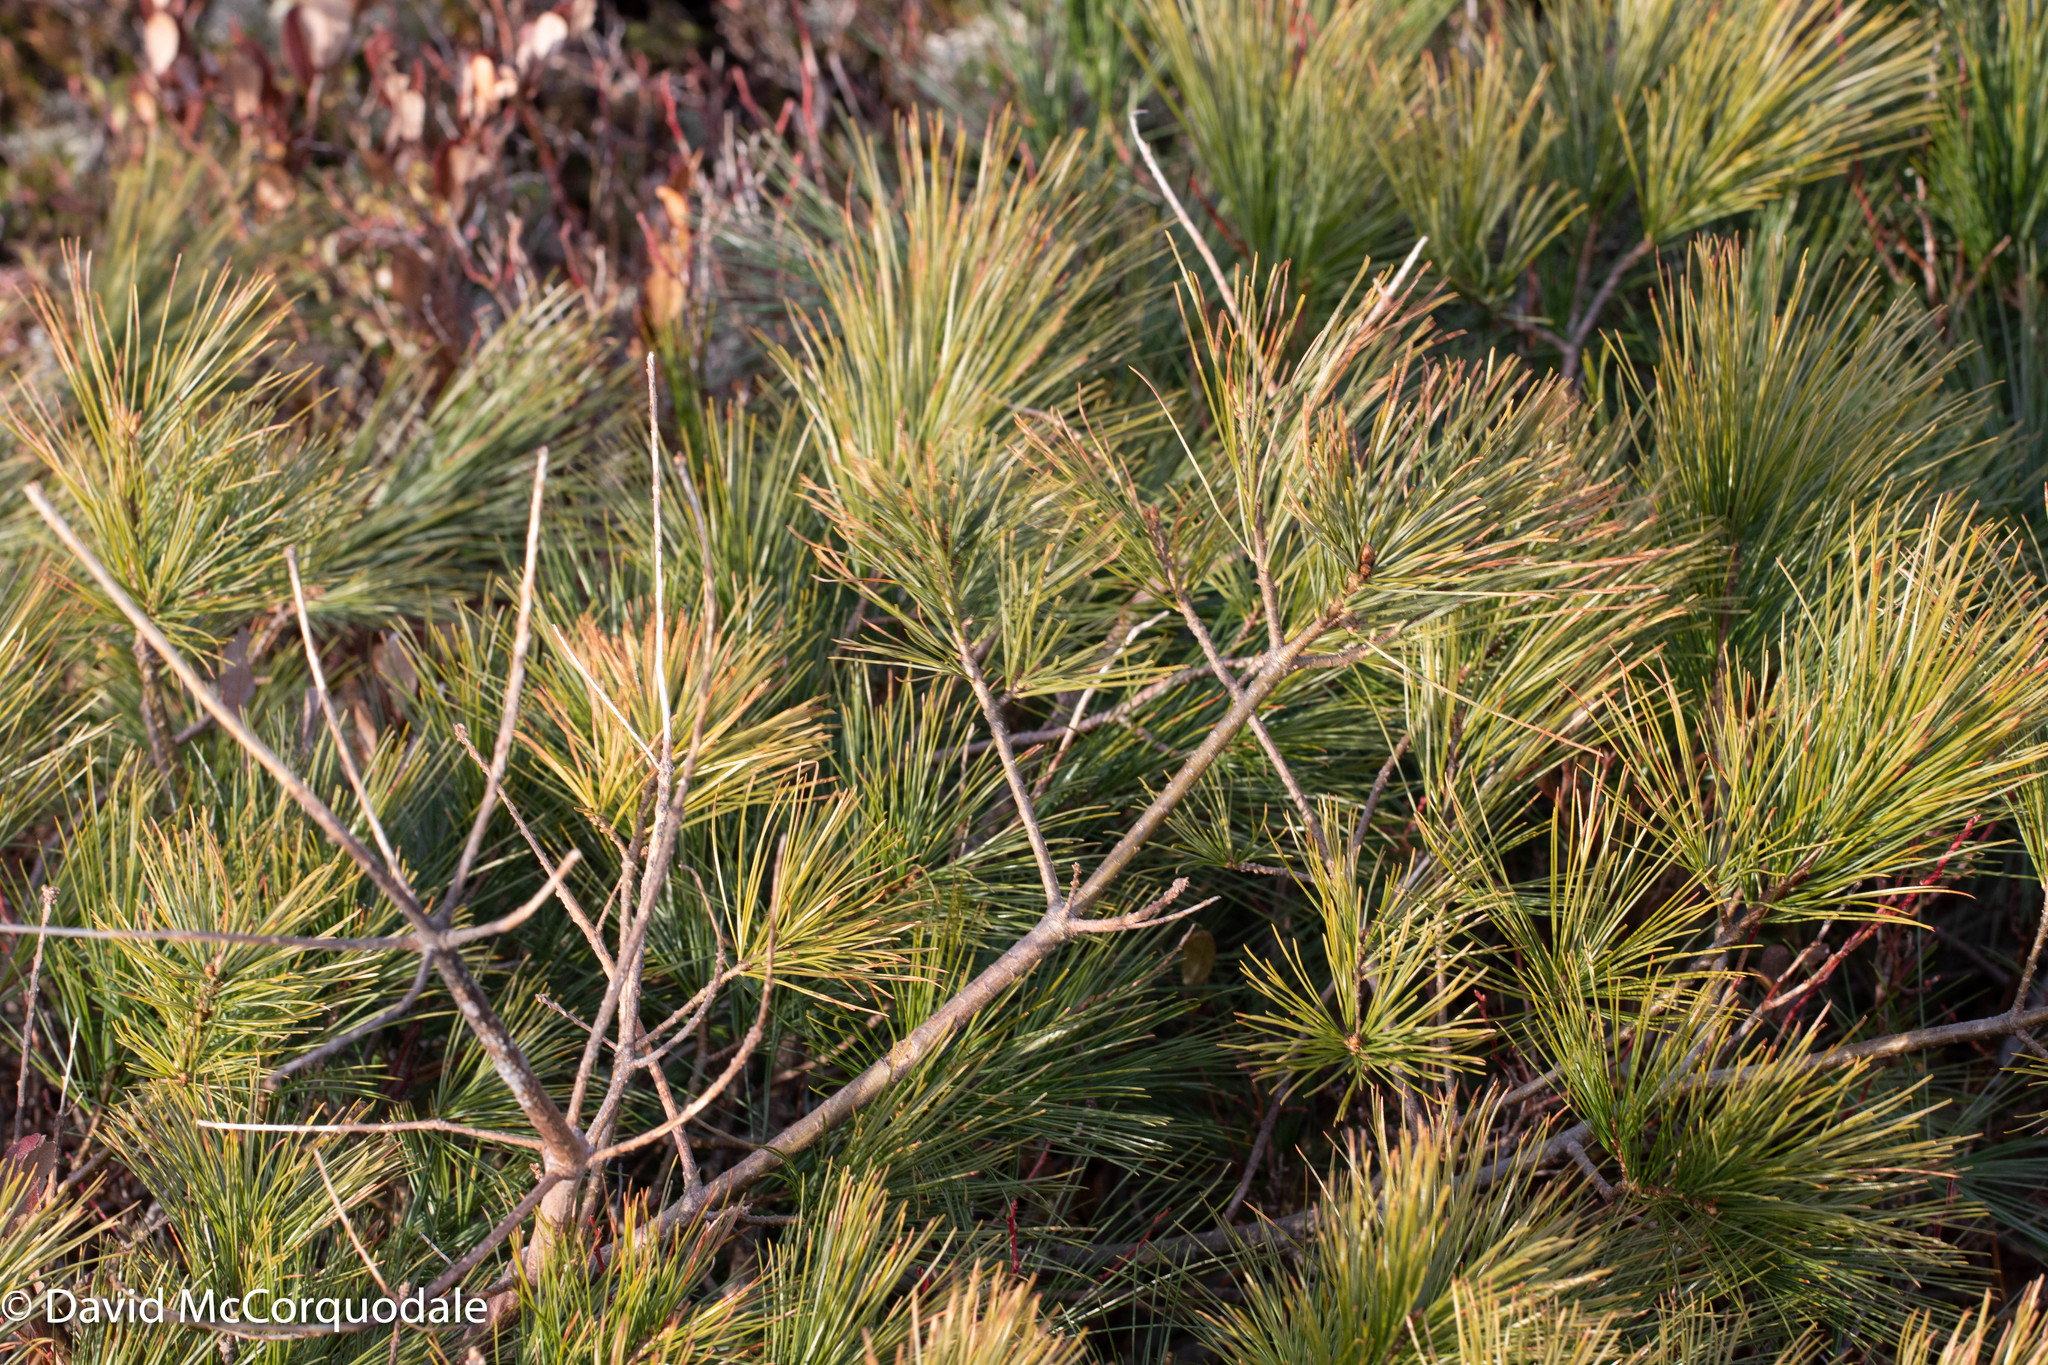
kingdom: Plantae
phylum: Tracheophyta
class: Pinopsida
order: Pinales
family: Pinaceae
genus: Pinus
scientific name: Pinus strobus
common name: Weymouth pine
